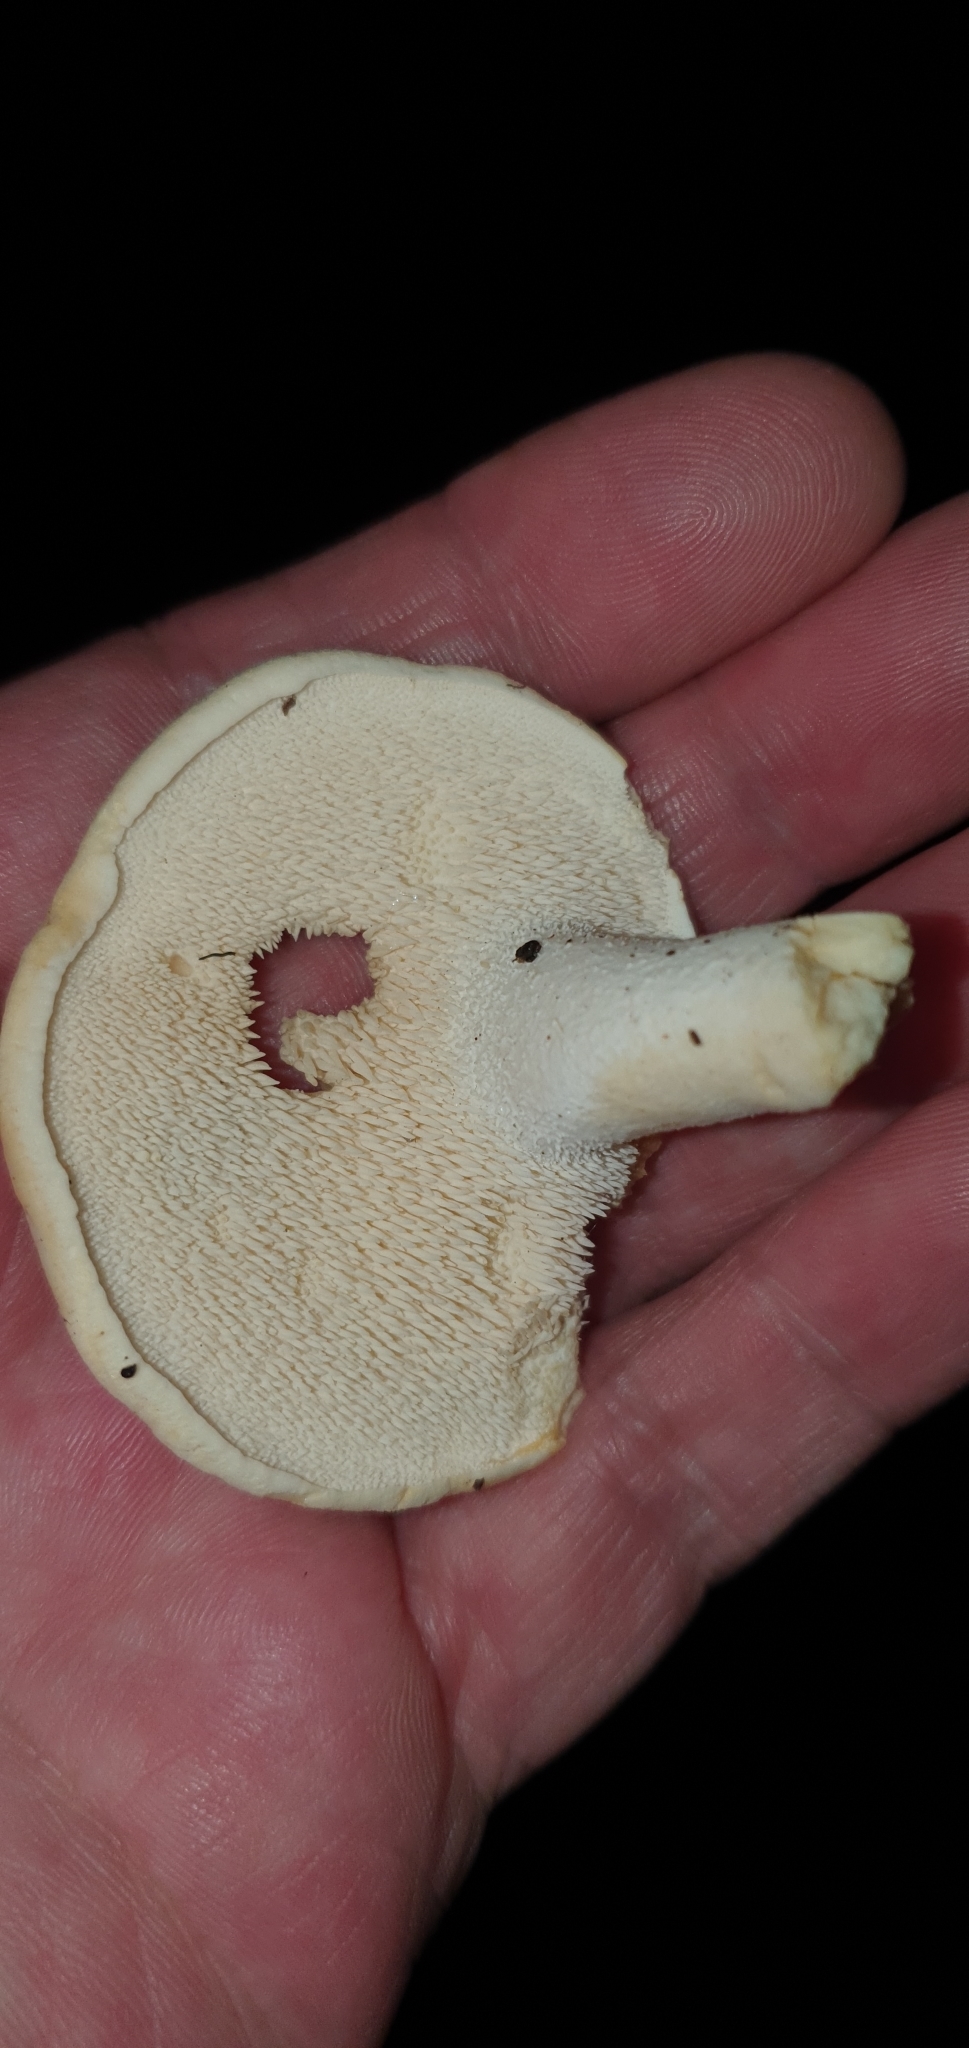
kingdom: Fungi
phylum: Basidiomycota
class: Agaricomycetes
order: Cantharellales
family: Hydnaceae
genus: Hydnum
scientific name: Hydnum repandum
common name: Wood hedgehog
